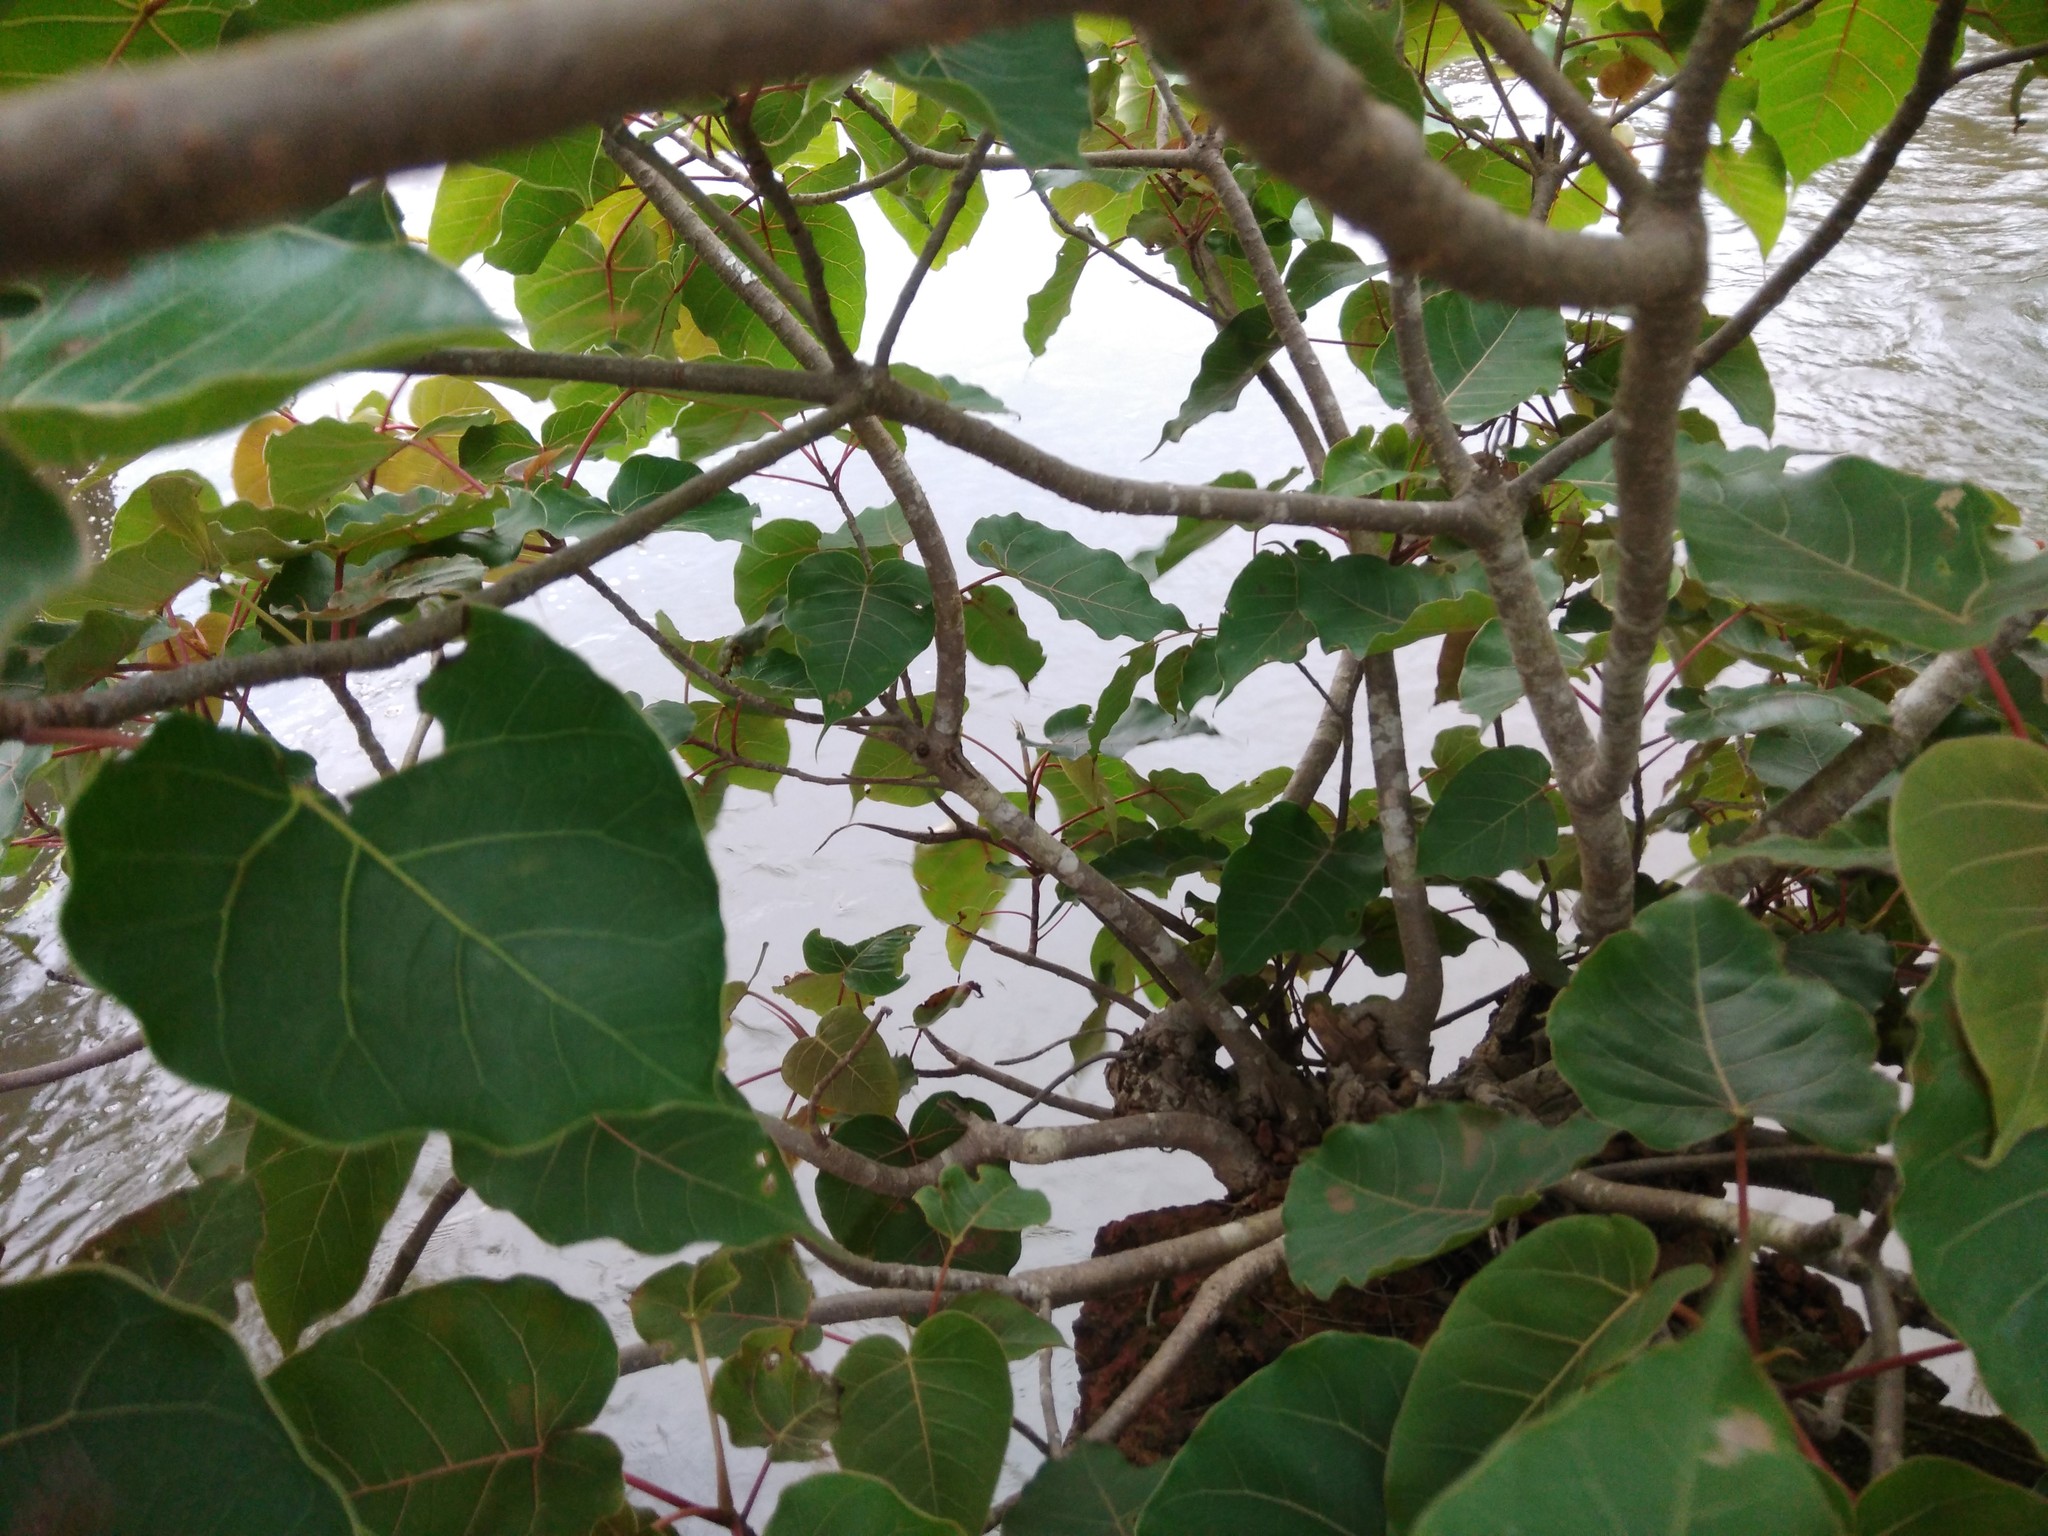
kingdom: Plantae
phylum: Tracheophyta
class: Magnoliopsida
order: Rosales
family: Moraceae
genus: Ficus
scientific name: Ficus arnottiana
